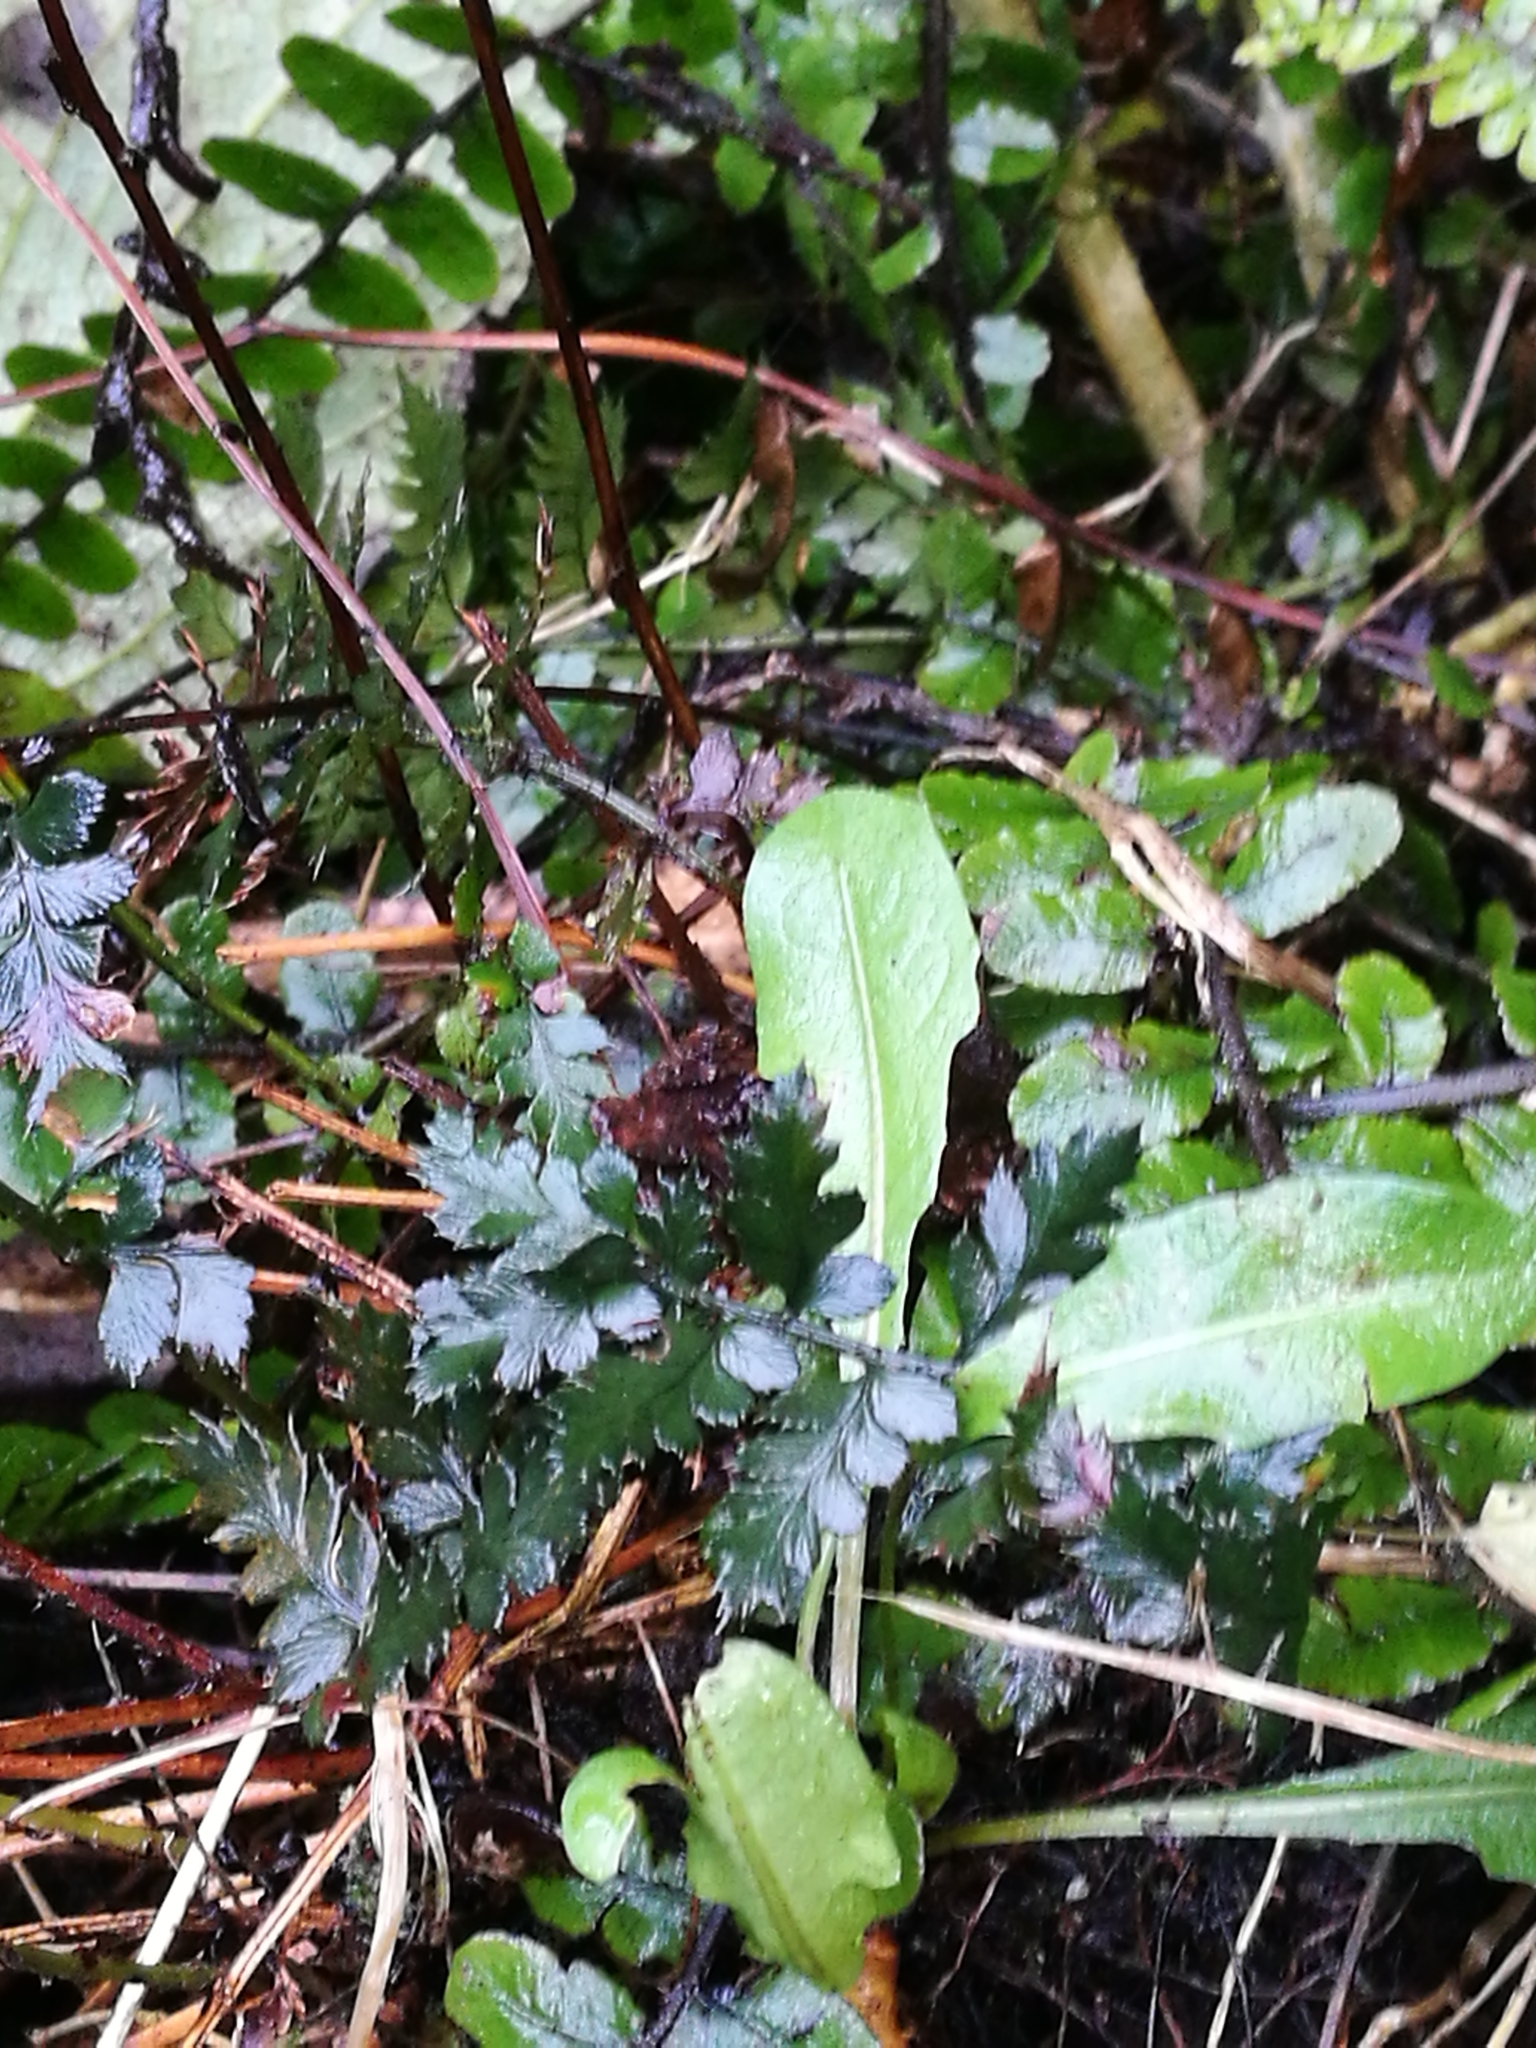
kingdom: Plantae
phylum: Tracheophyta
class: Polypodiopsida
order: Polypodiales
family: Dryopteridaceae
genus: Polystichum
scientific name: Polystichum oculatum
